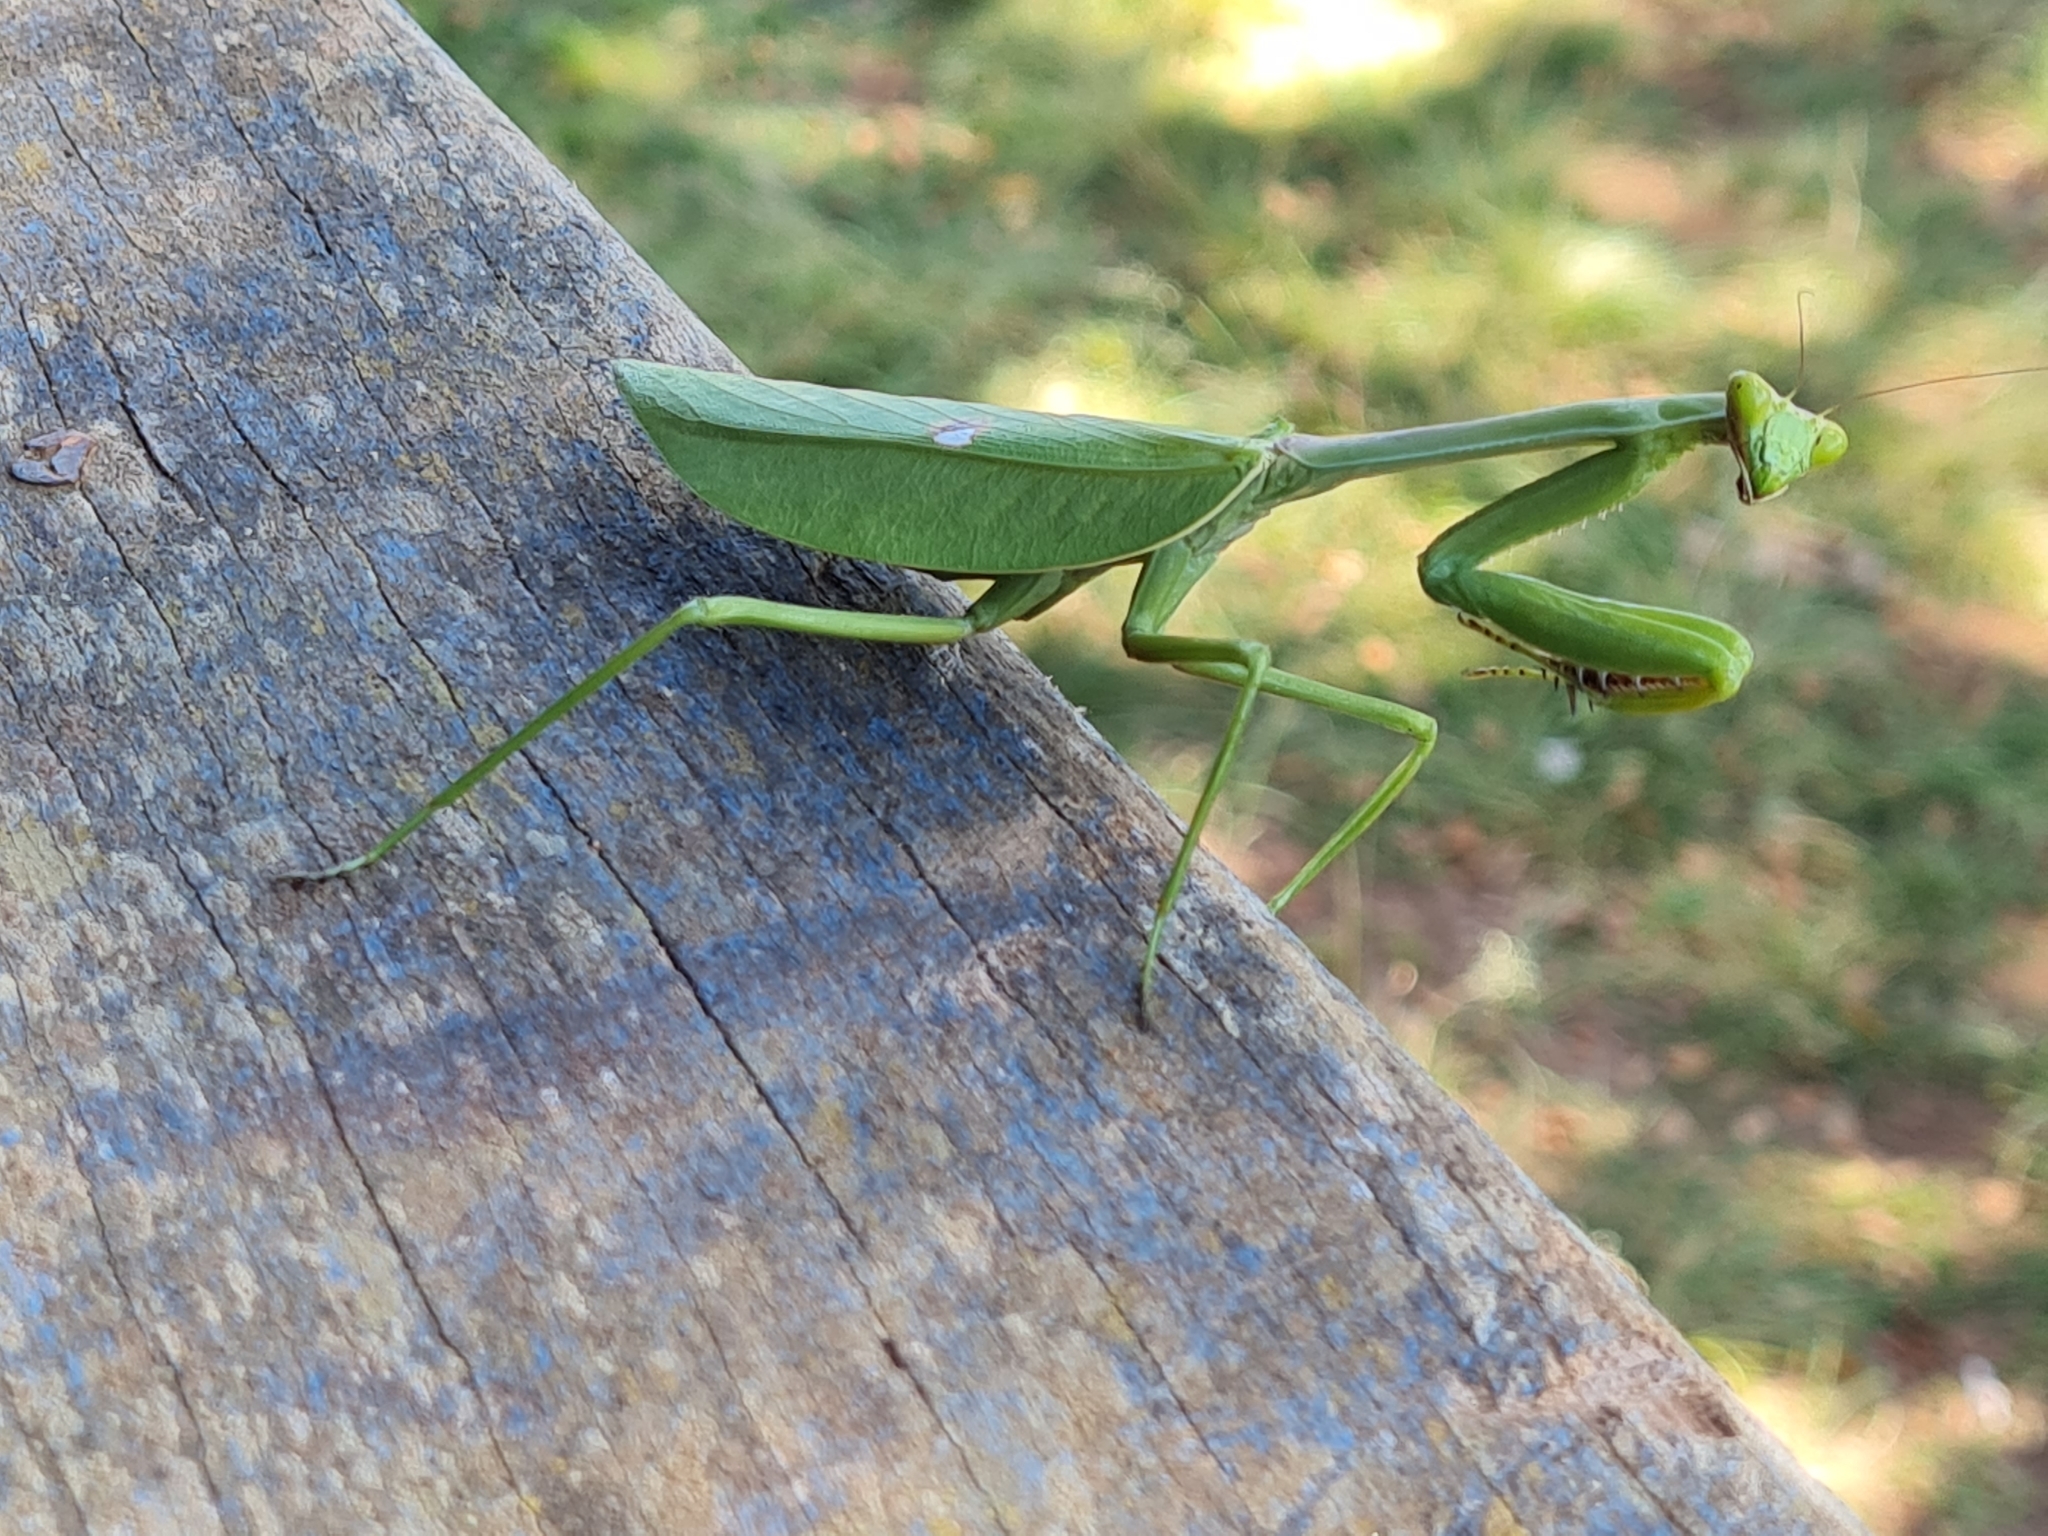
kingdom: Animalia
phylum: Arthropoda
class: Insecta
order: Mantodea
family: Mantidae
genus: Stagmatoptera
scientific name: Stagmatoptera pia
